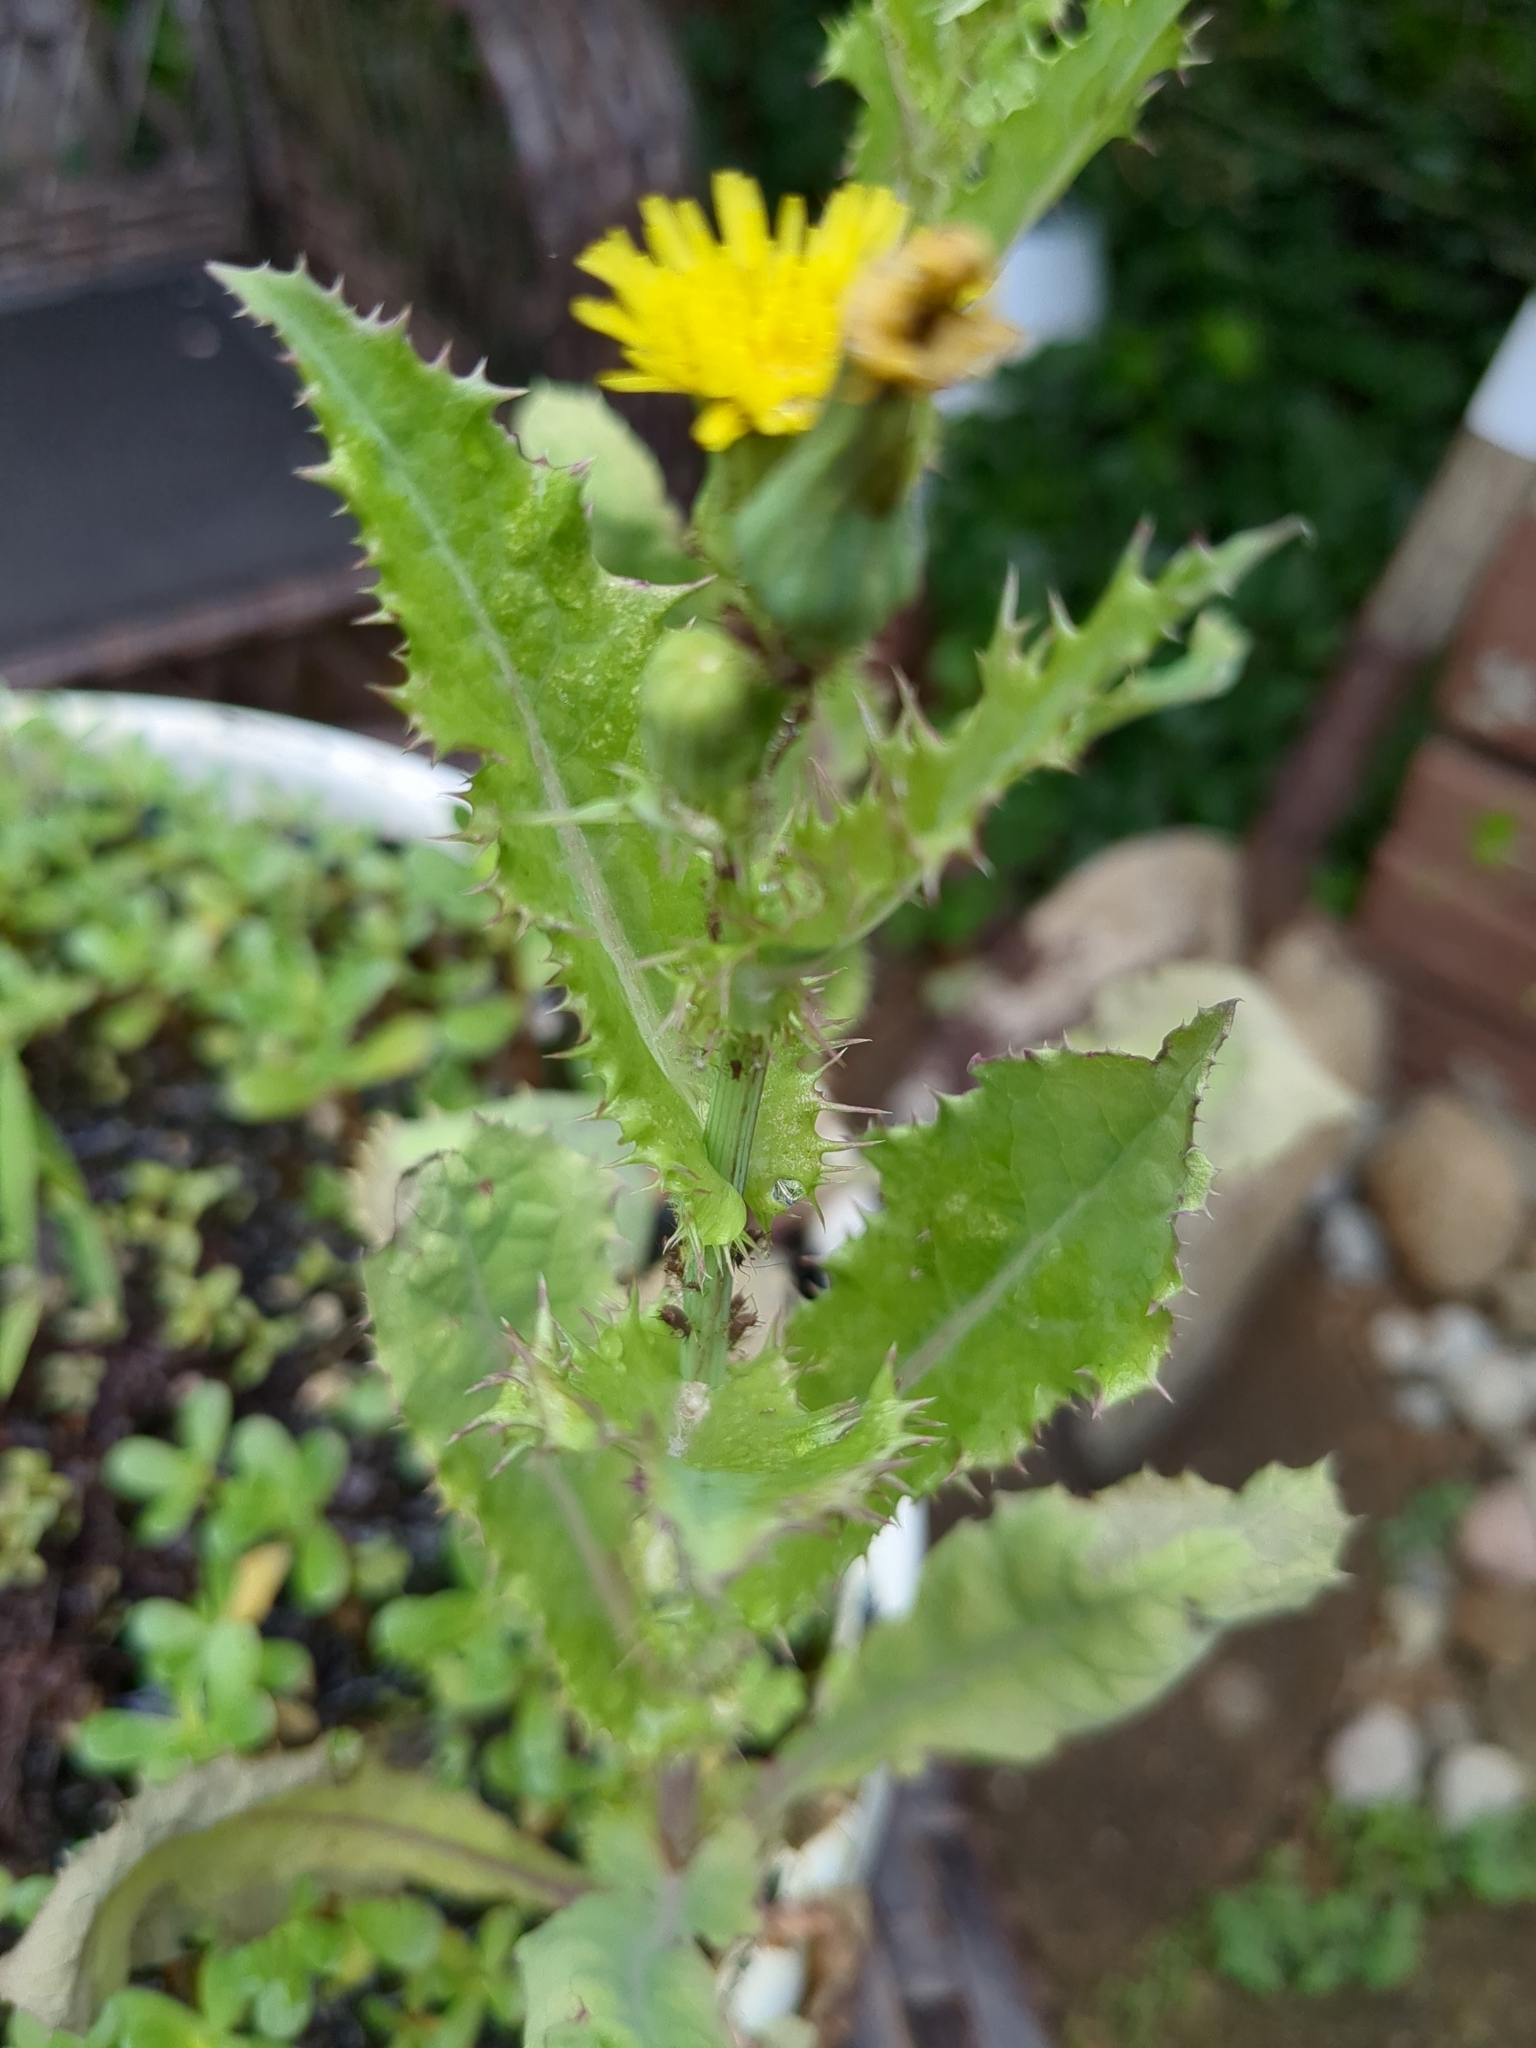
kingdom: Plantae
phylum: Tracheophyta
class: Magnoliopsida
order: Asterales
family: Asteraceae
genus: Sonchus
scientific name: Sonchus asper
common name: Prickly sow-thistle
